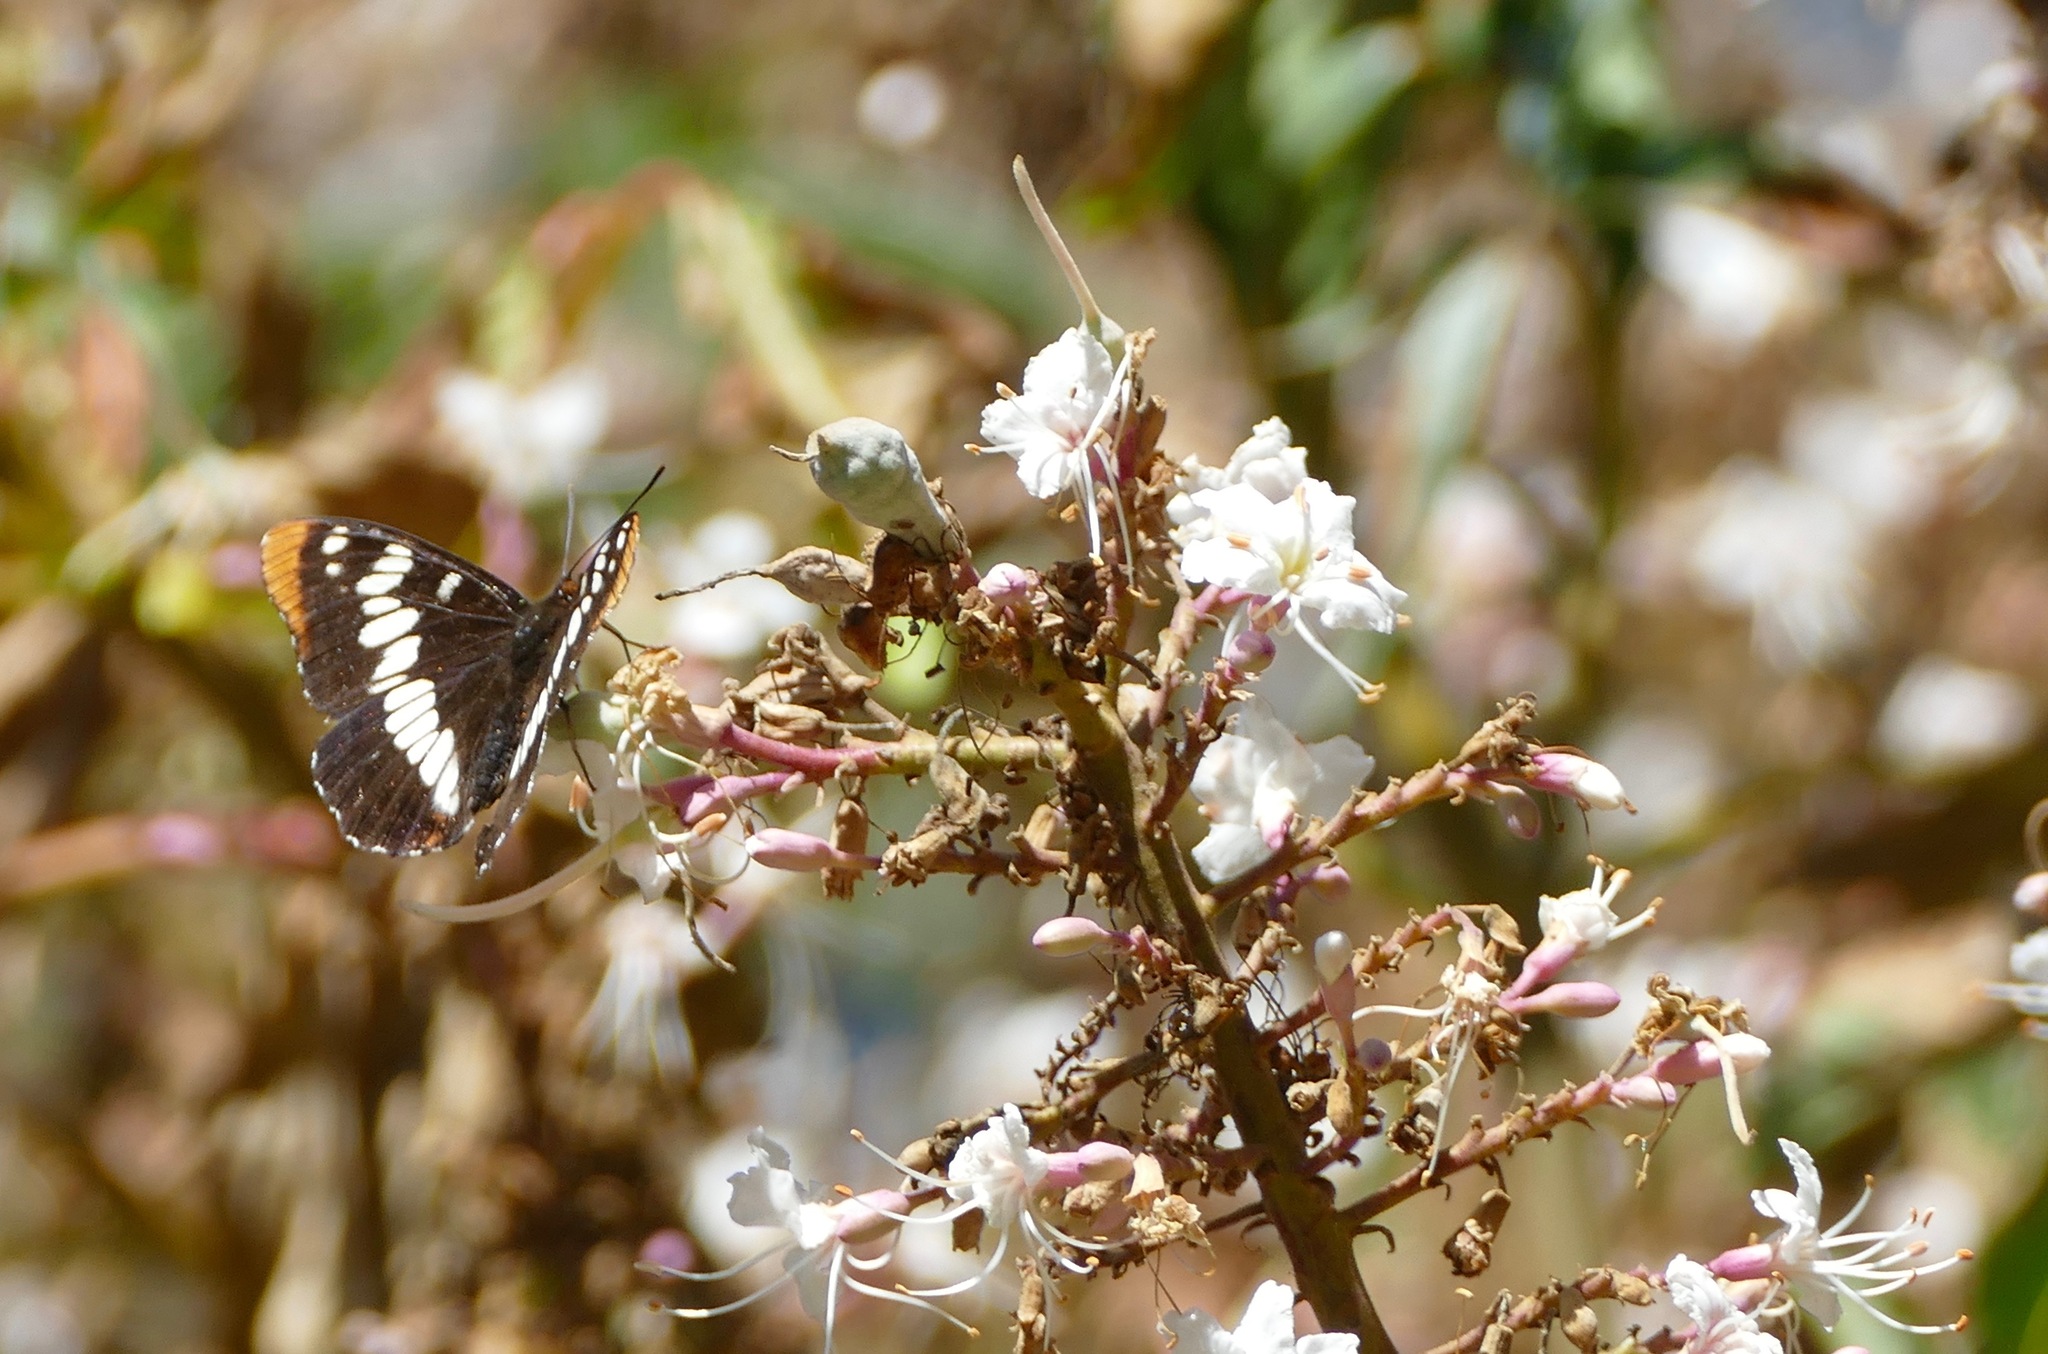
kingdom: Animalia
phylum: Arthropoda
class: Insecta
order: Lepidoptera
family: Nymphalidae
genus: Limenitis
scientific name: Limenitis lorquini
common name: Lorquin's admiral
